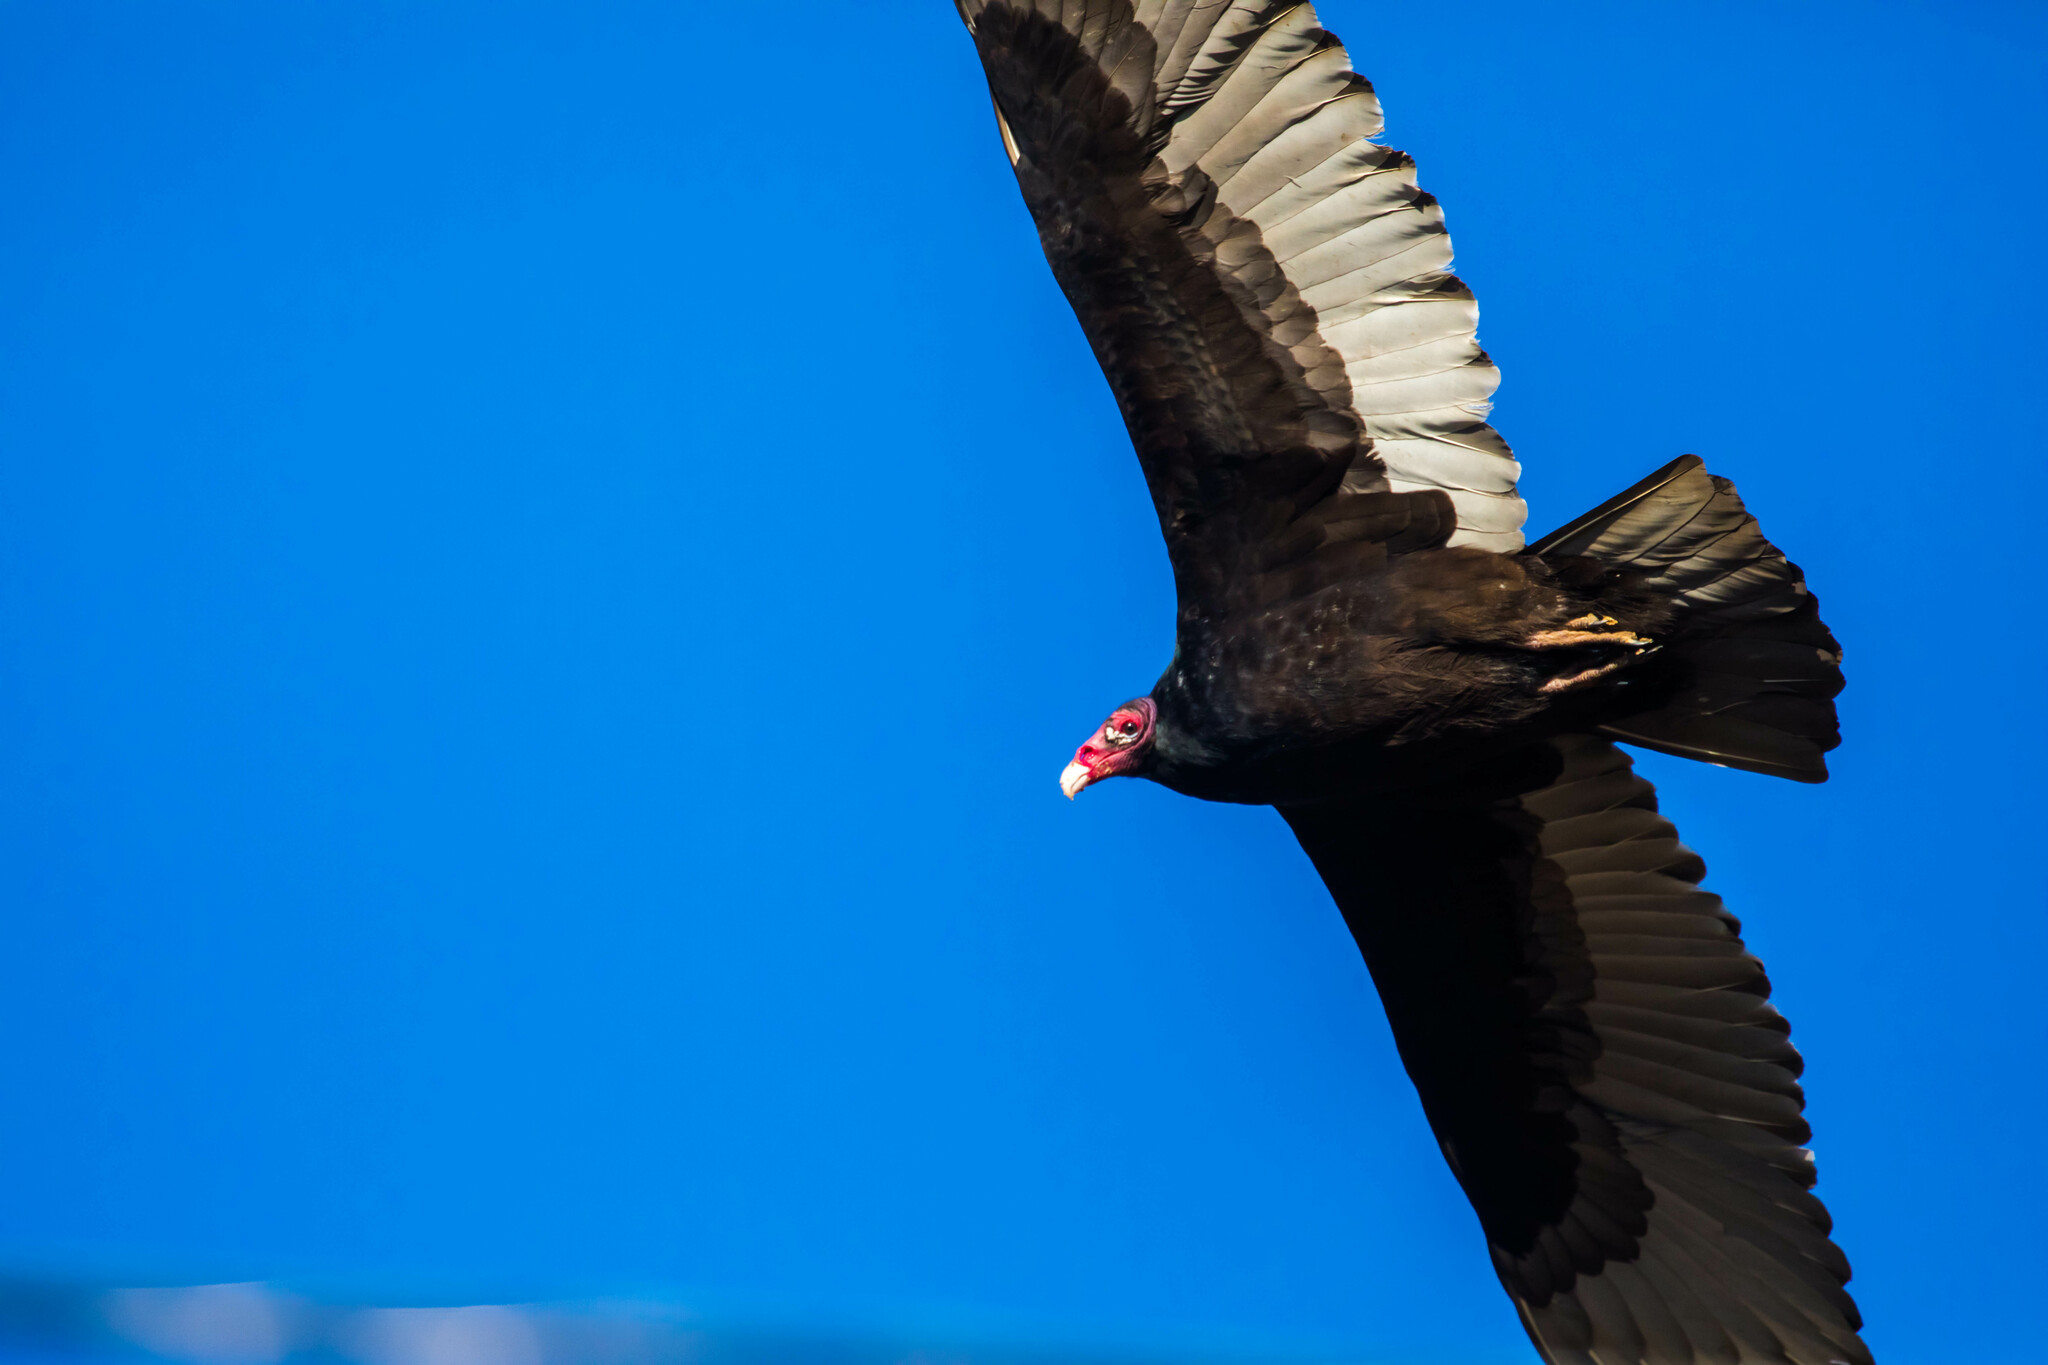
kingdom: Animalia
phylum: Chordata
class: Aves
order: Accipitriformes
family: Cathartidae
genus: Cathartes
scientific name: Cathartes aura
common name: Turkey vulture
